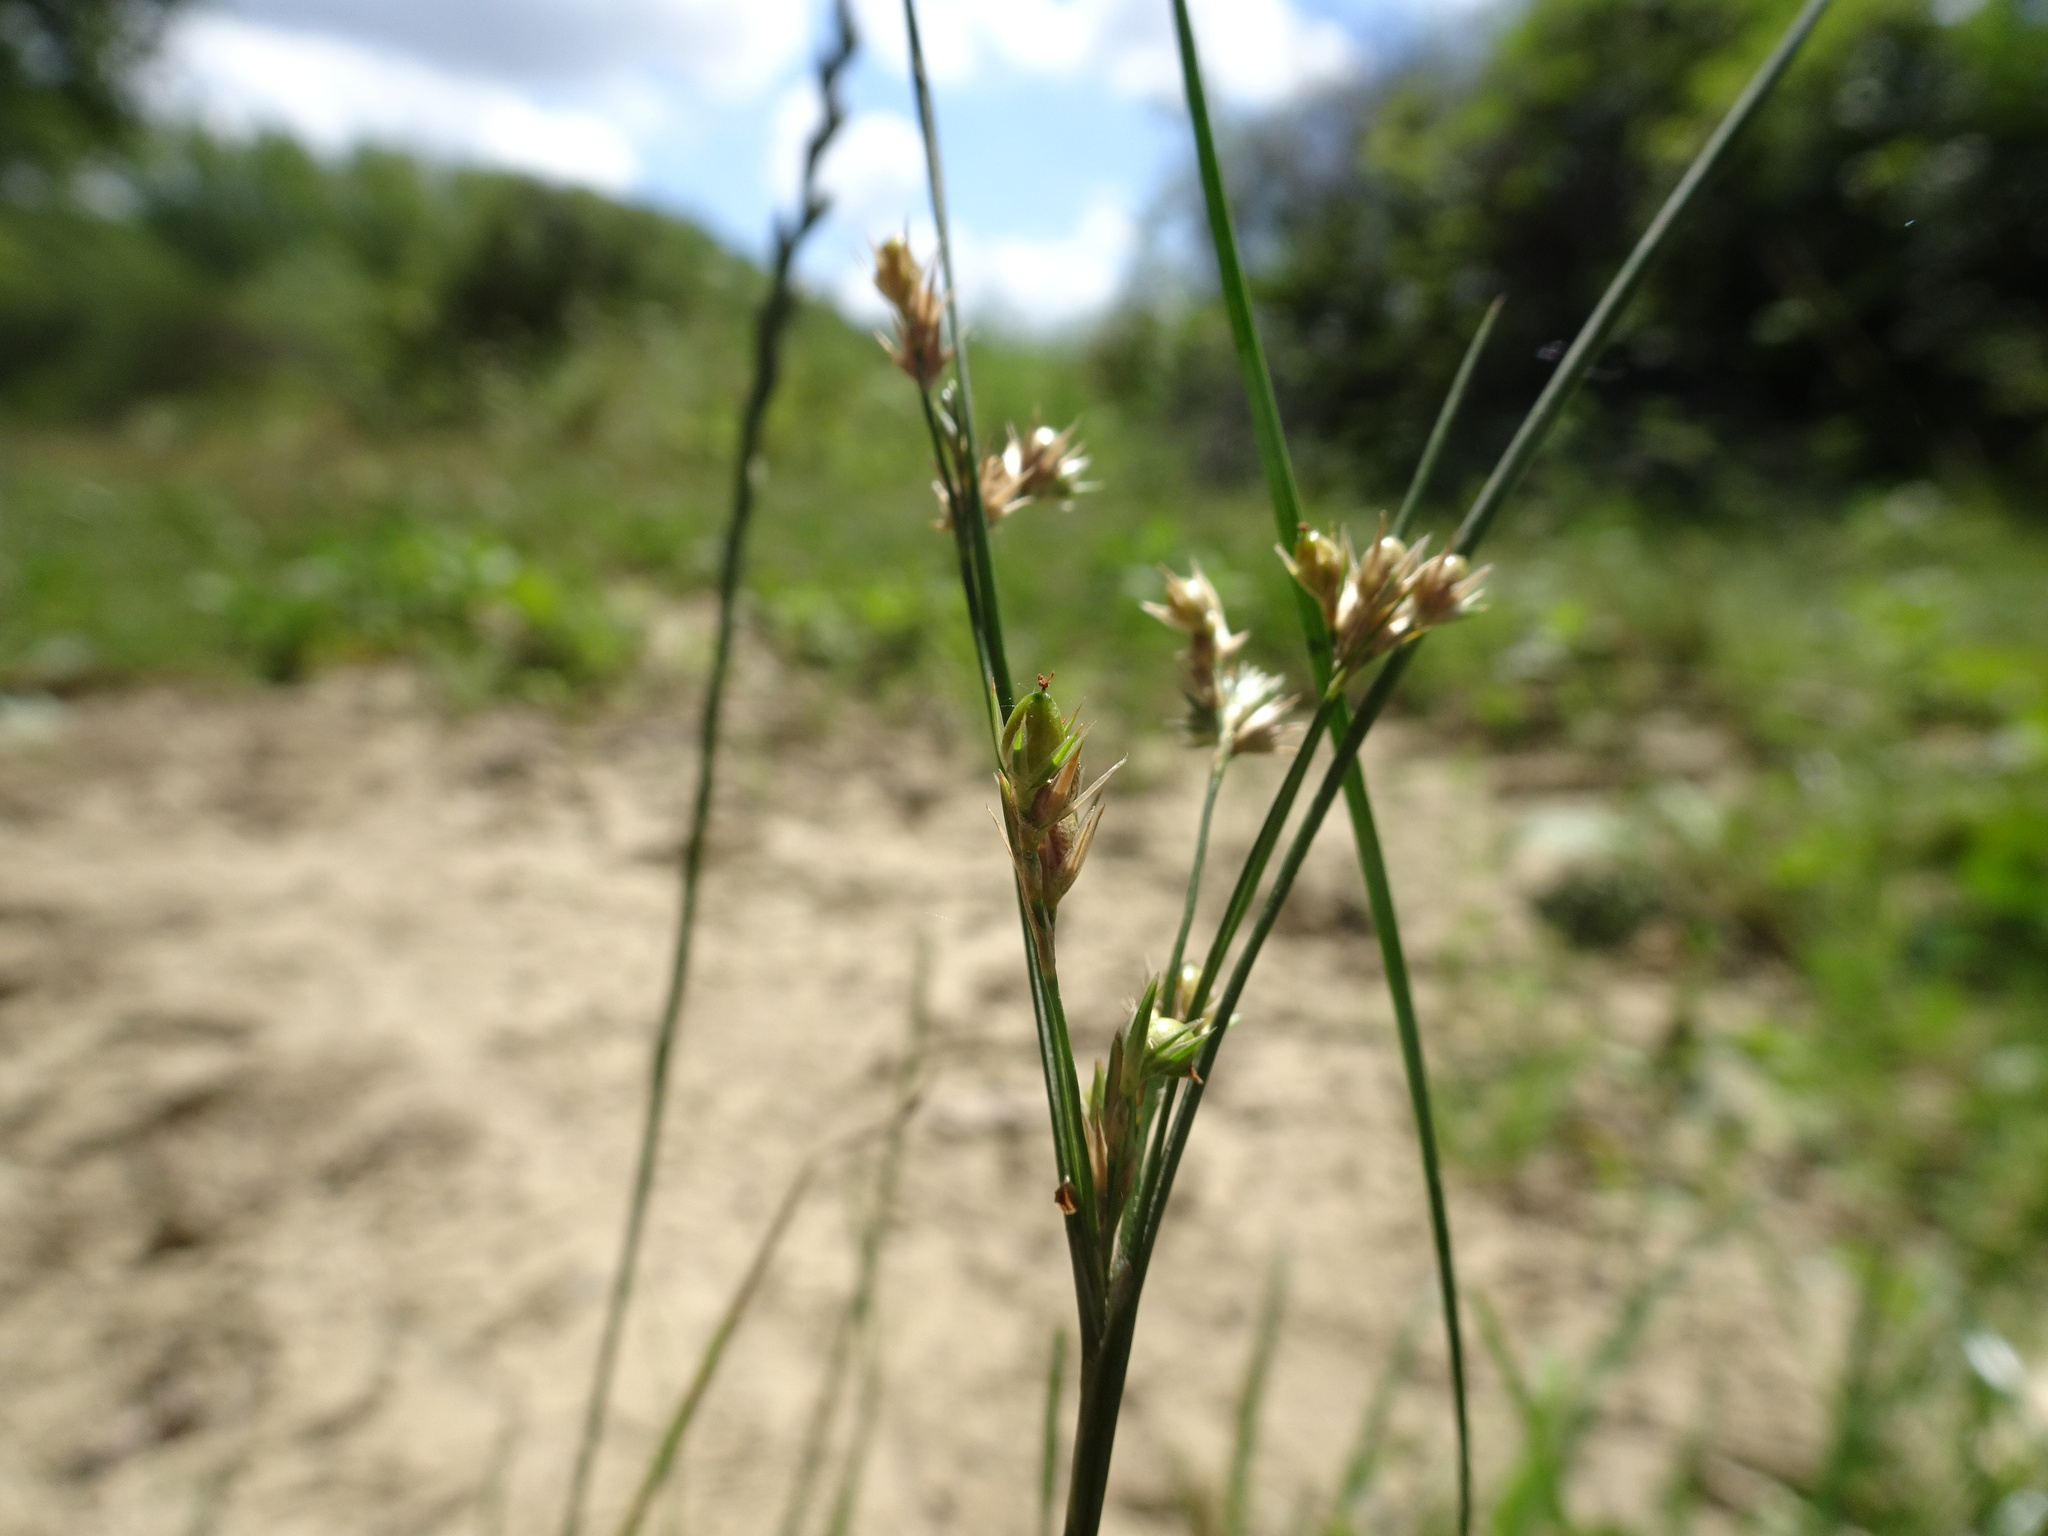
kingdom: Plantae
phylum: Tracheophyta
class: Liliopsida
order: Poales
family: Juncaceae
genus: Juncus
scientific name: Juncus tenuis
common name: Slender rush
